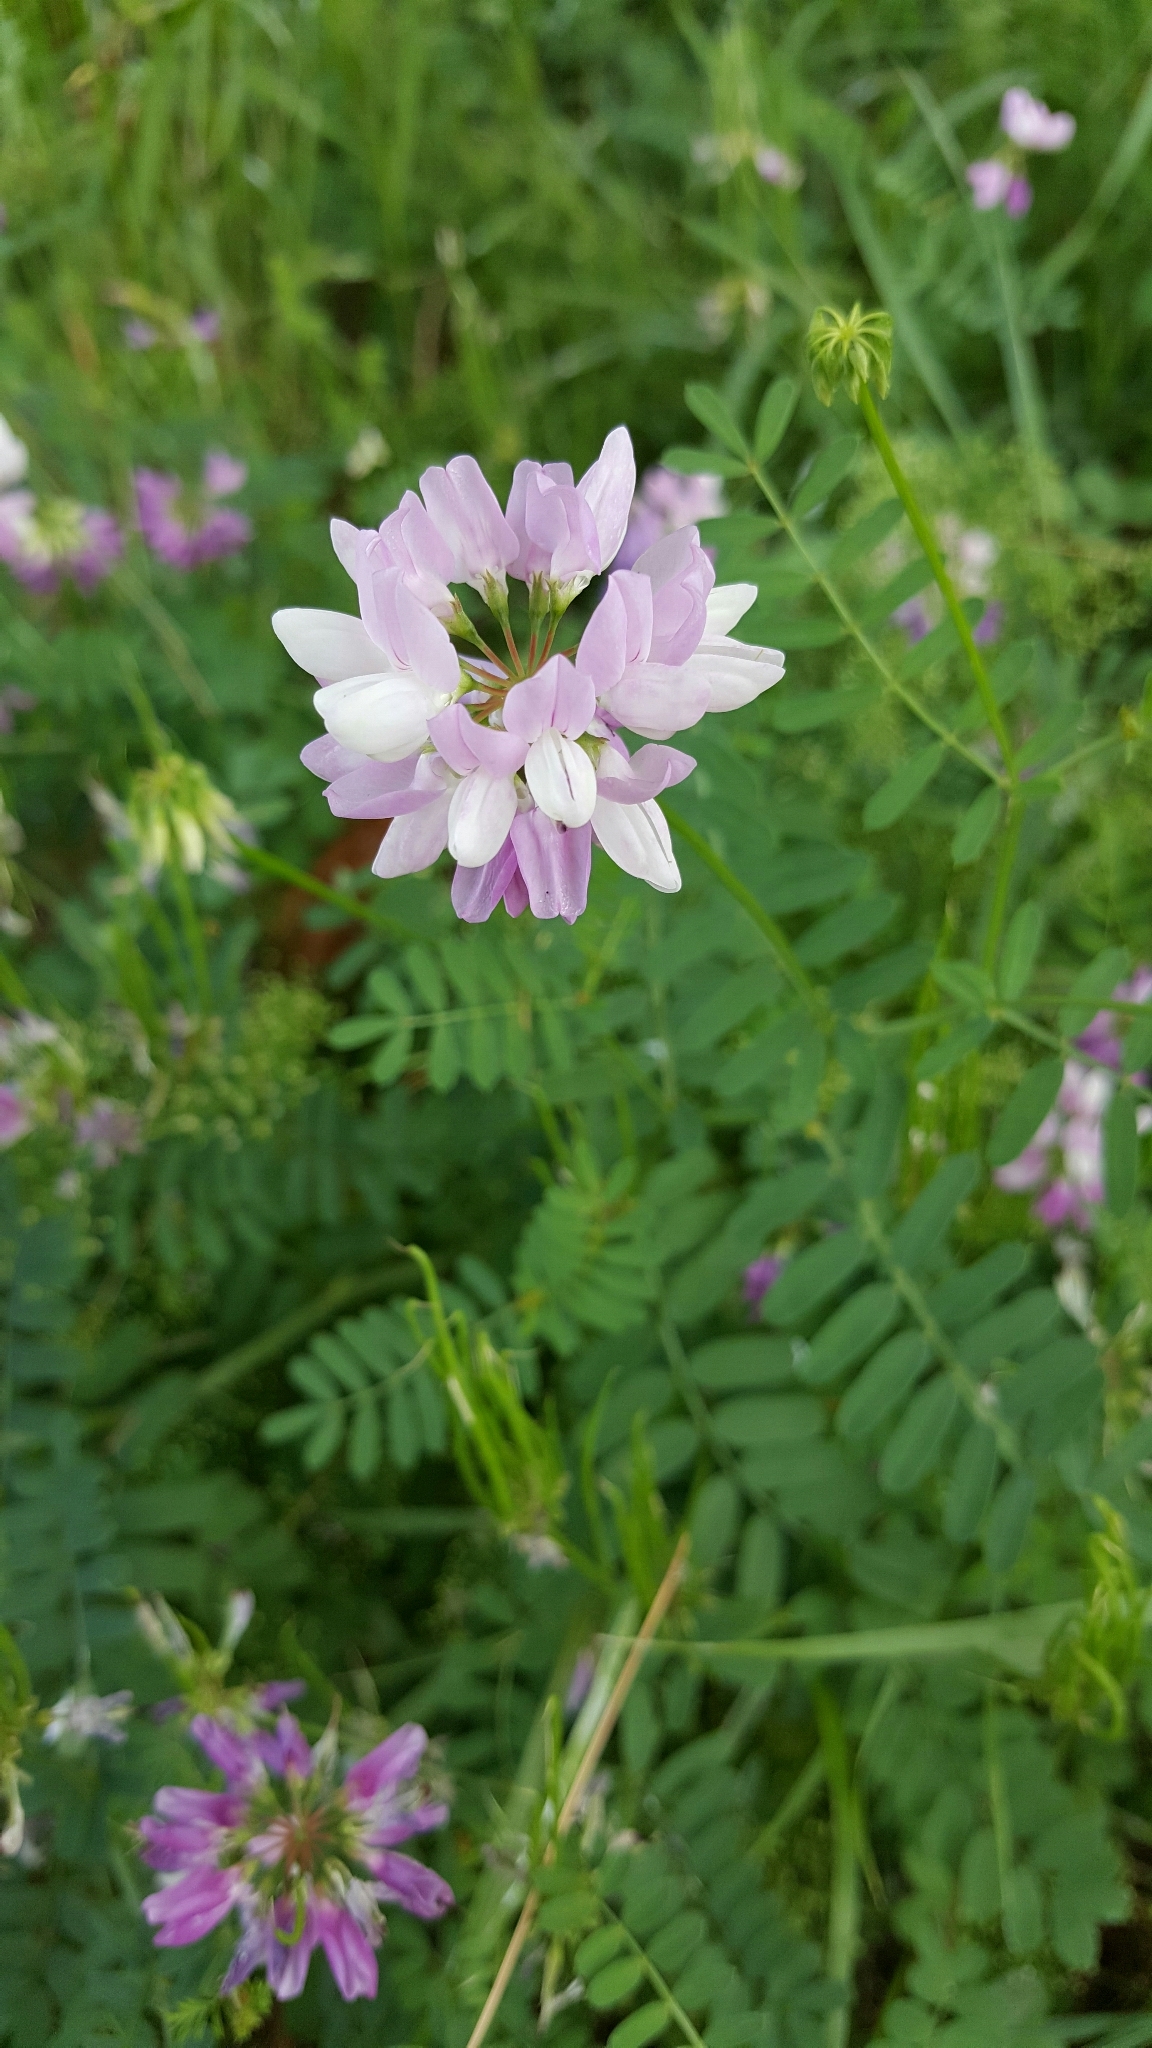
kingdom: Plantae
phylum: Tracheophyta
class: Magnoliopsida
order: Fabales
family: Fabaceae
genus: Coronilla
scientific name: Coronilla varia
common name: Crownvetch
